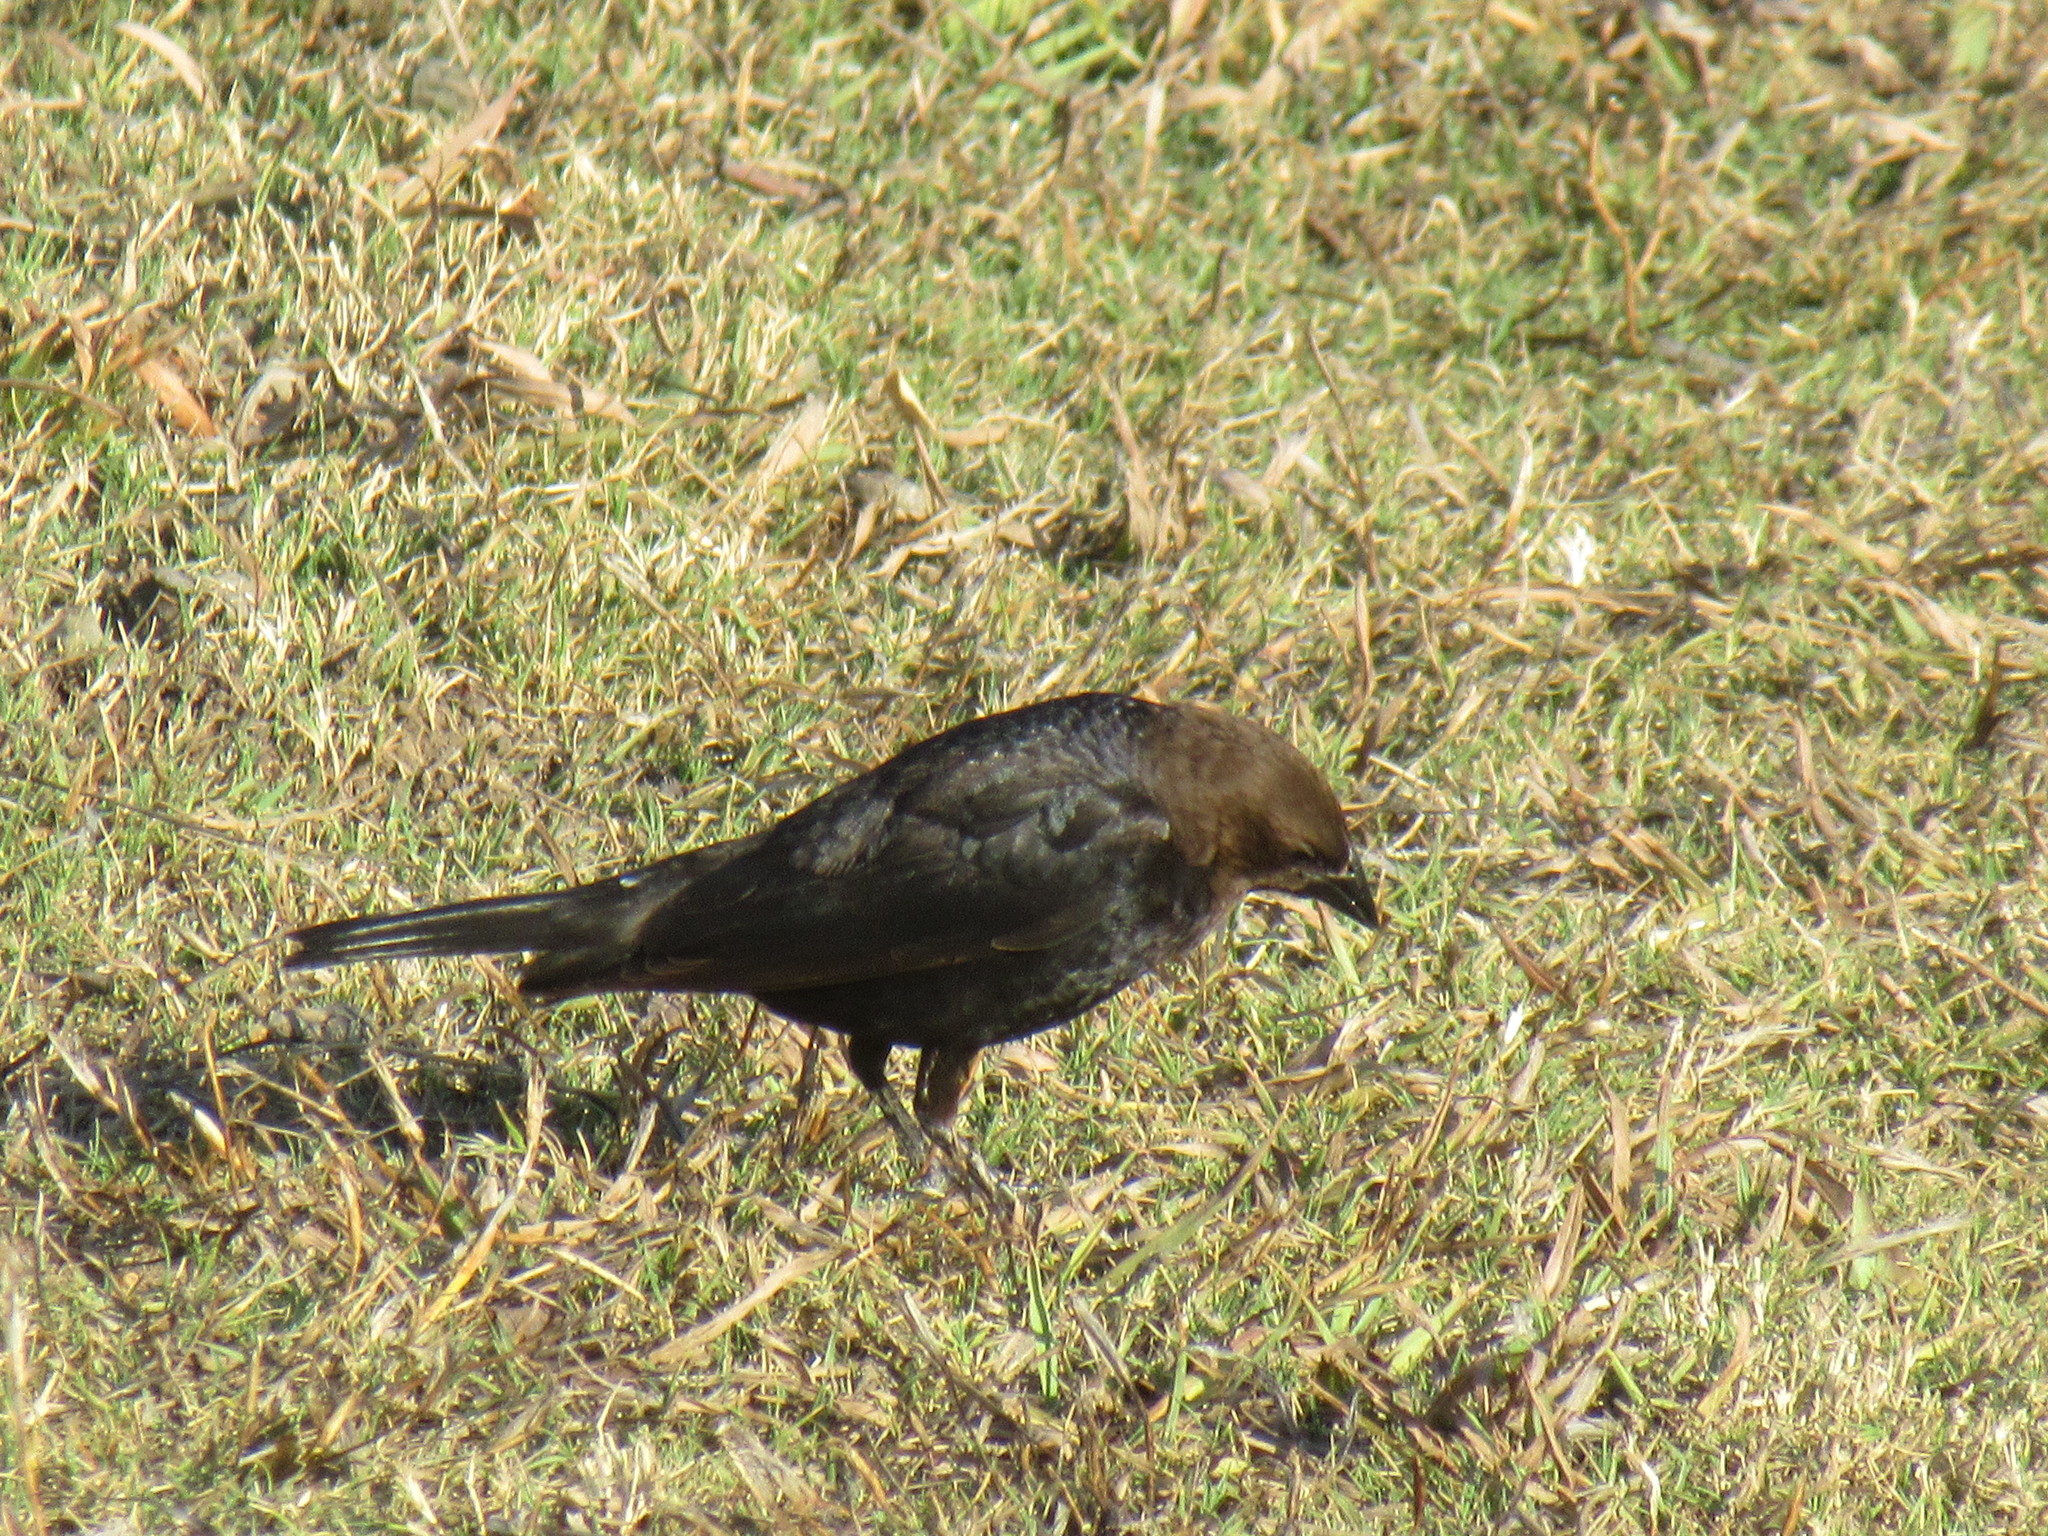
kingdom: Animalia
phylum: Chordata
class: Aves
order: Passeriformes
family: Icteridae
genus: Molothrus
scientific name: Molothrus ater
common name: Brown-headed cowbird
